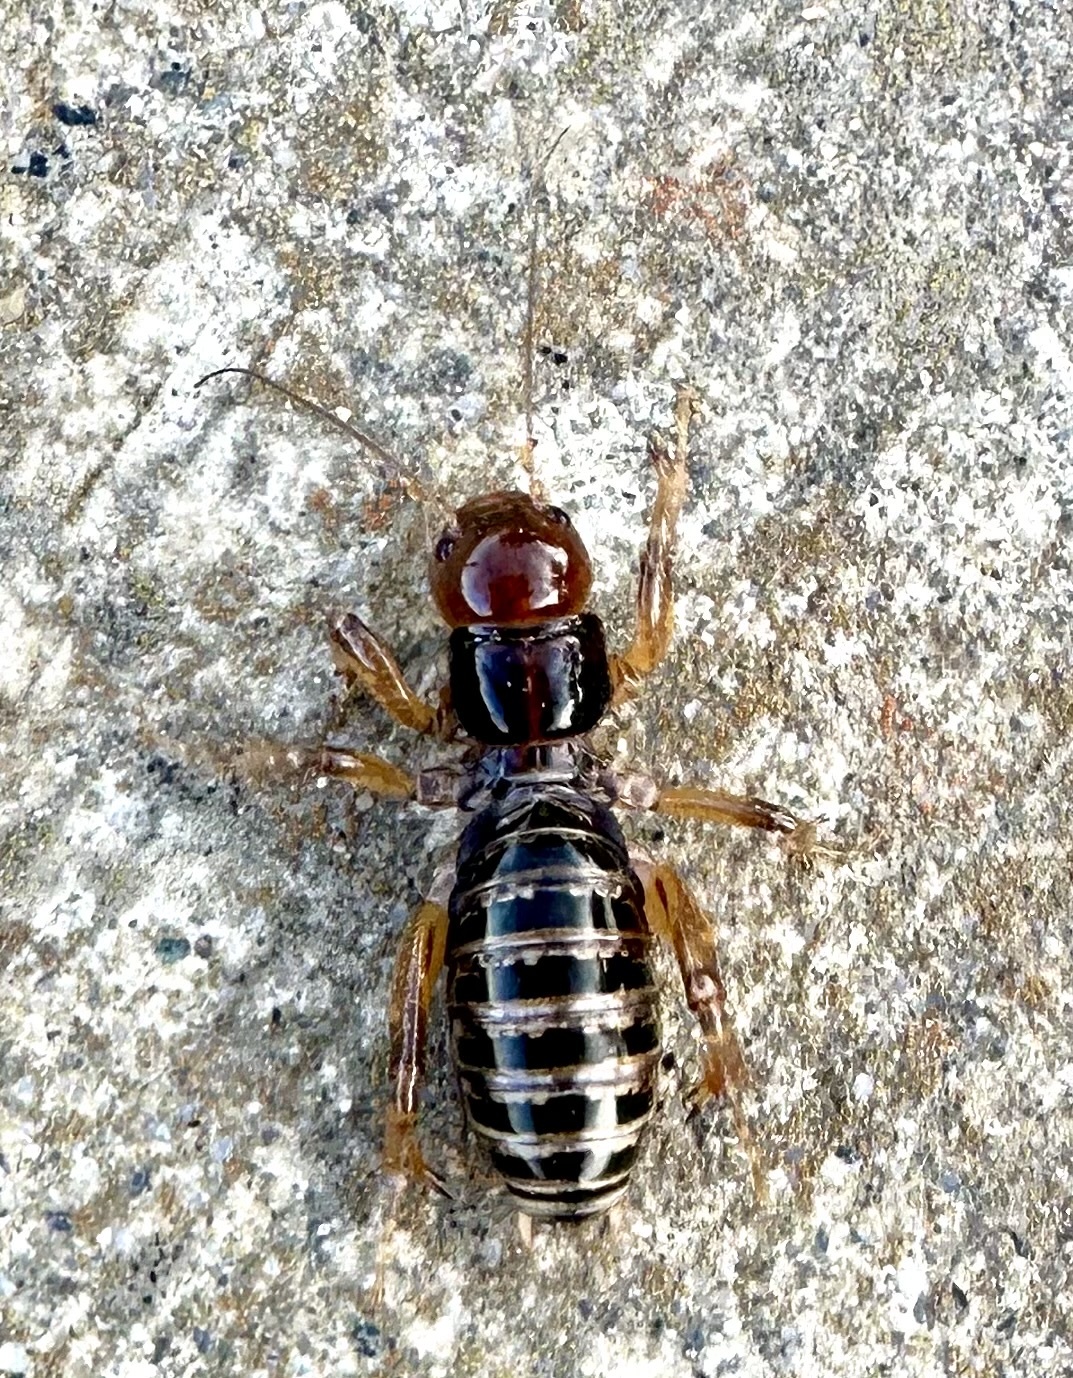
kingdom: Animalia
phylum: Arthropoda
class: Insecta
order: Orthoptera
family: Stenopelmatidae
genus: Ammopelmatus
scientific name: Ammopelmatus
